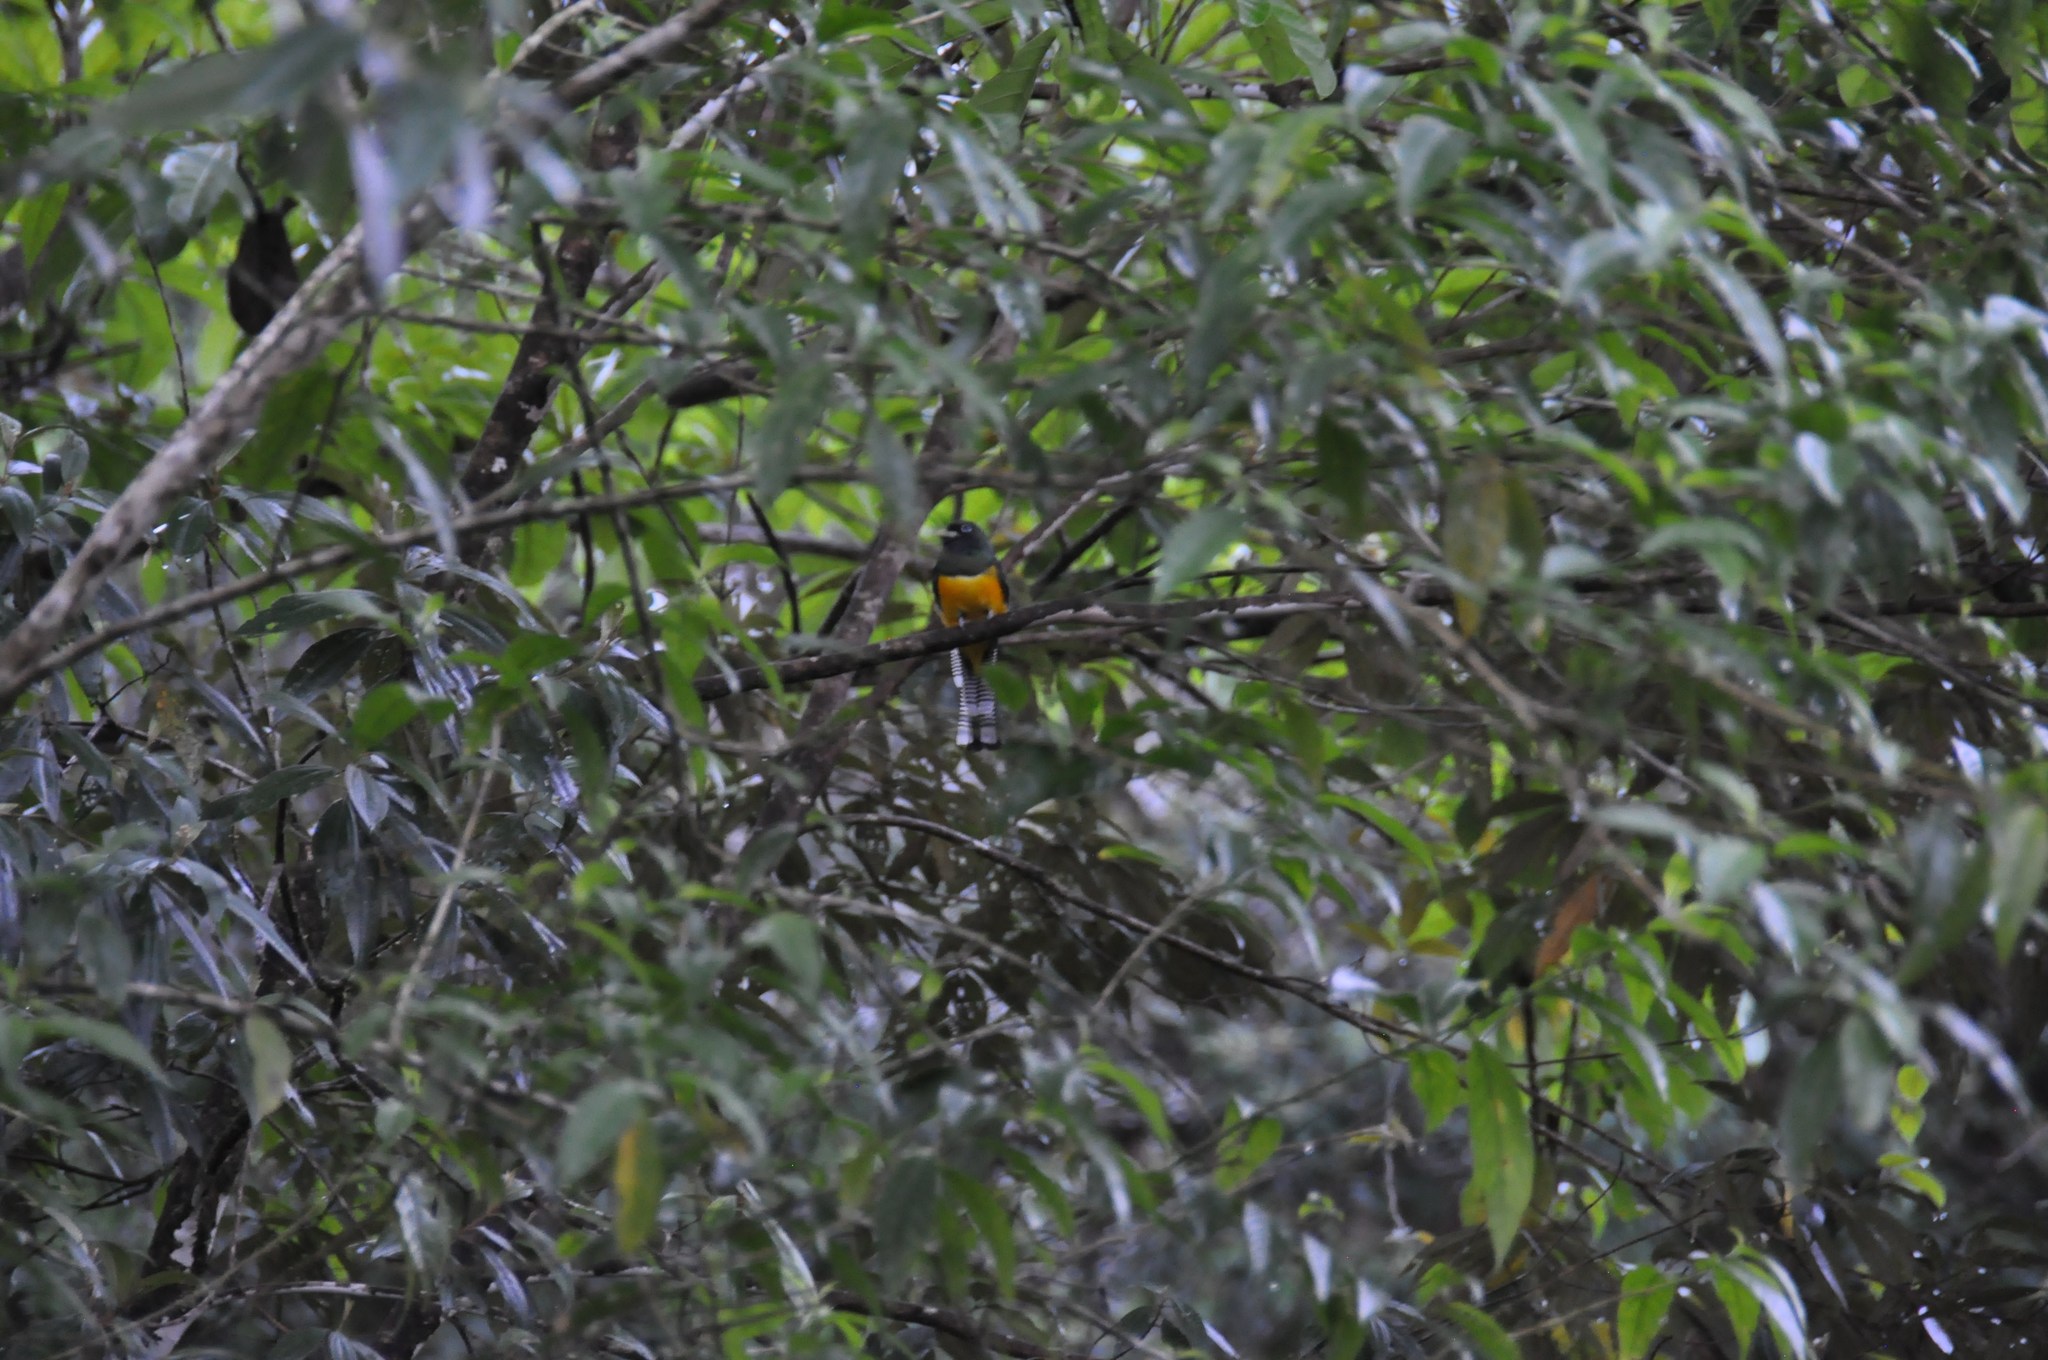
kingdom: Animalia
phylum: Chordata
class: Aves
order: Trogoniformes
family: Trogonidae
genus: Trogon
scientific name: Trogon rufus
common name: Black-throated trogon
